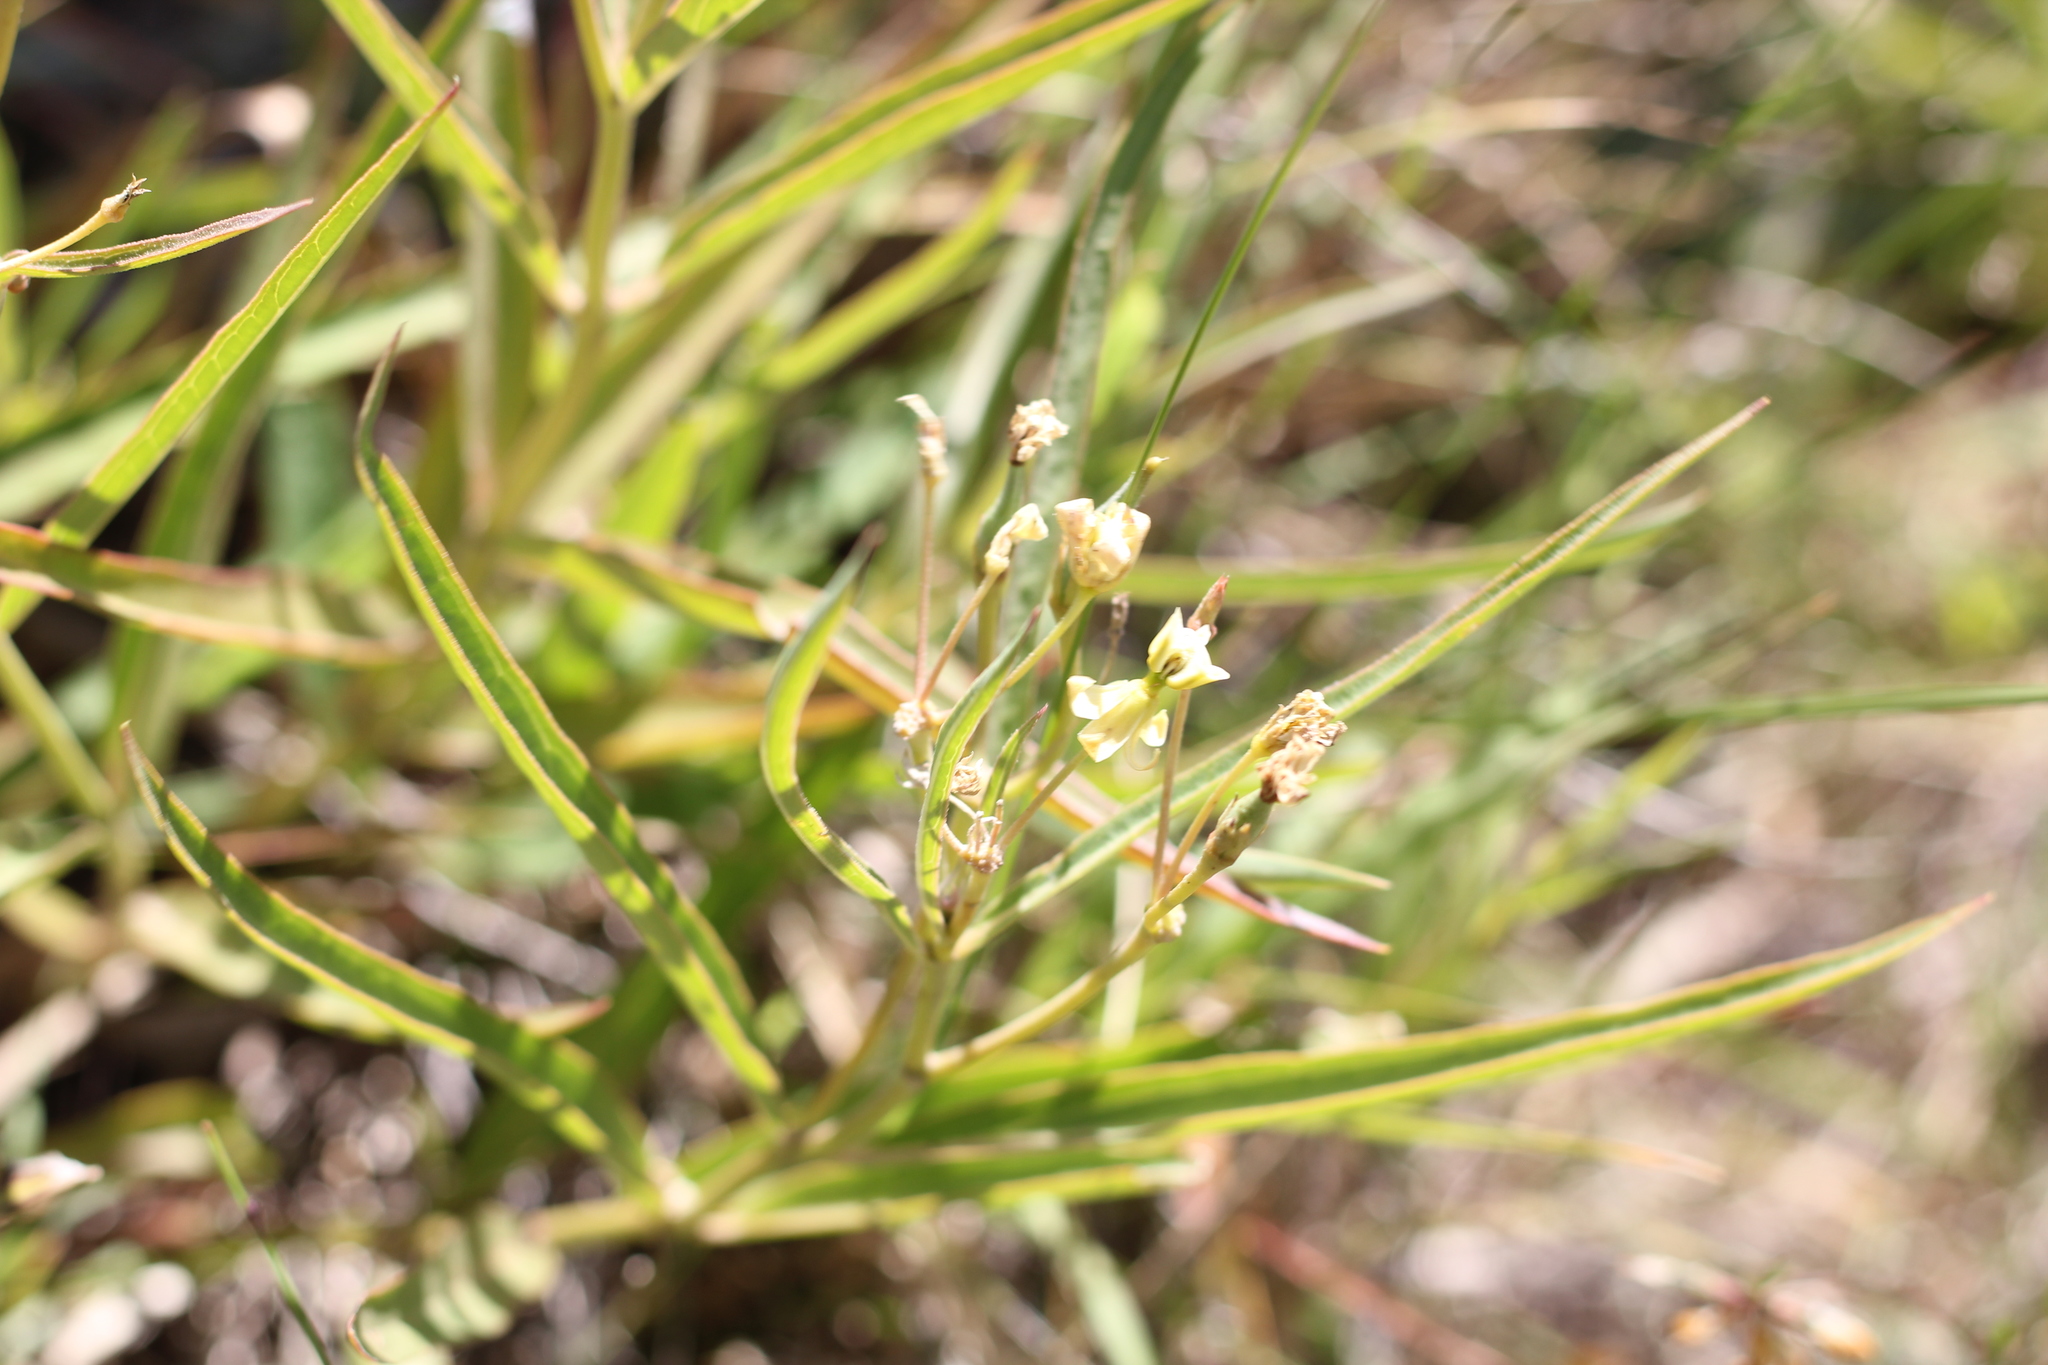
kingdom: Plantae
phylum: Tracheophyta
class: Magnoliopsida
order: Gentianales
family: Apocynaceae
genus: Asclepias
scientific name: Asclepias mellodora
